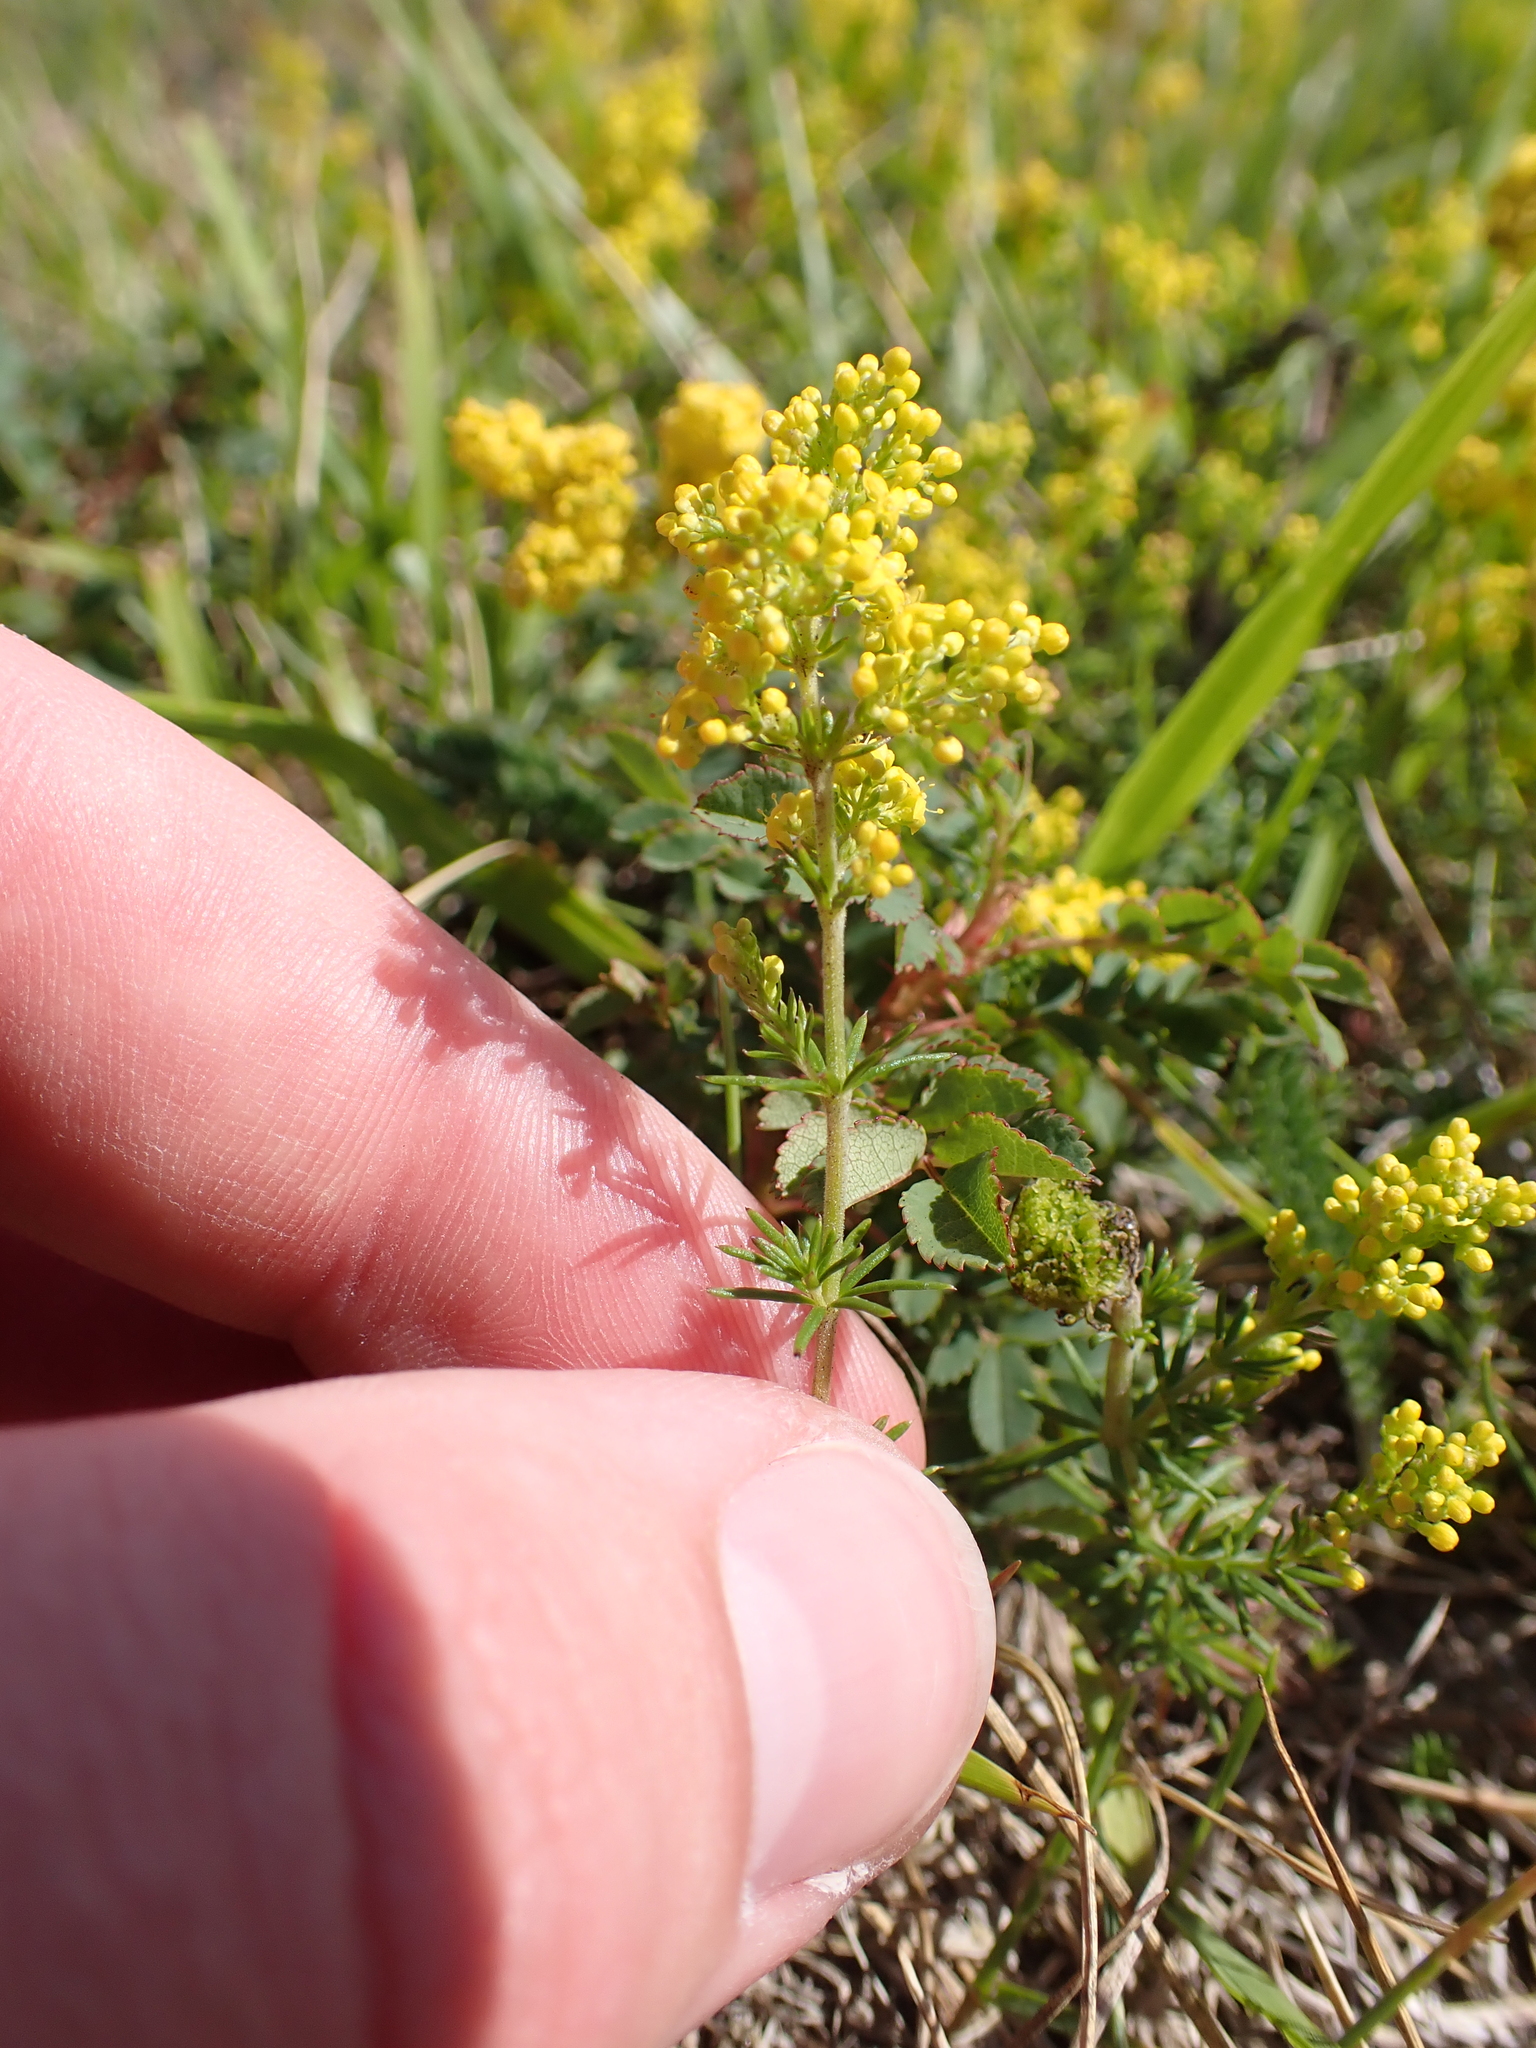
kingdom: Plantae
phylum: Tracheophyta
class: Magnoliopsida
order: Gentianales
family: Rubiaceae
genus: Galium
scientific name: Galium verum
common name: Lady's bedstraw
